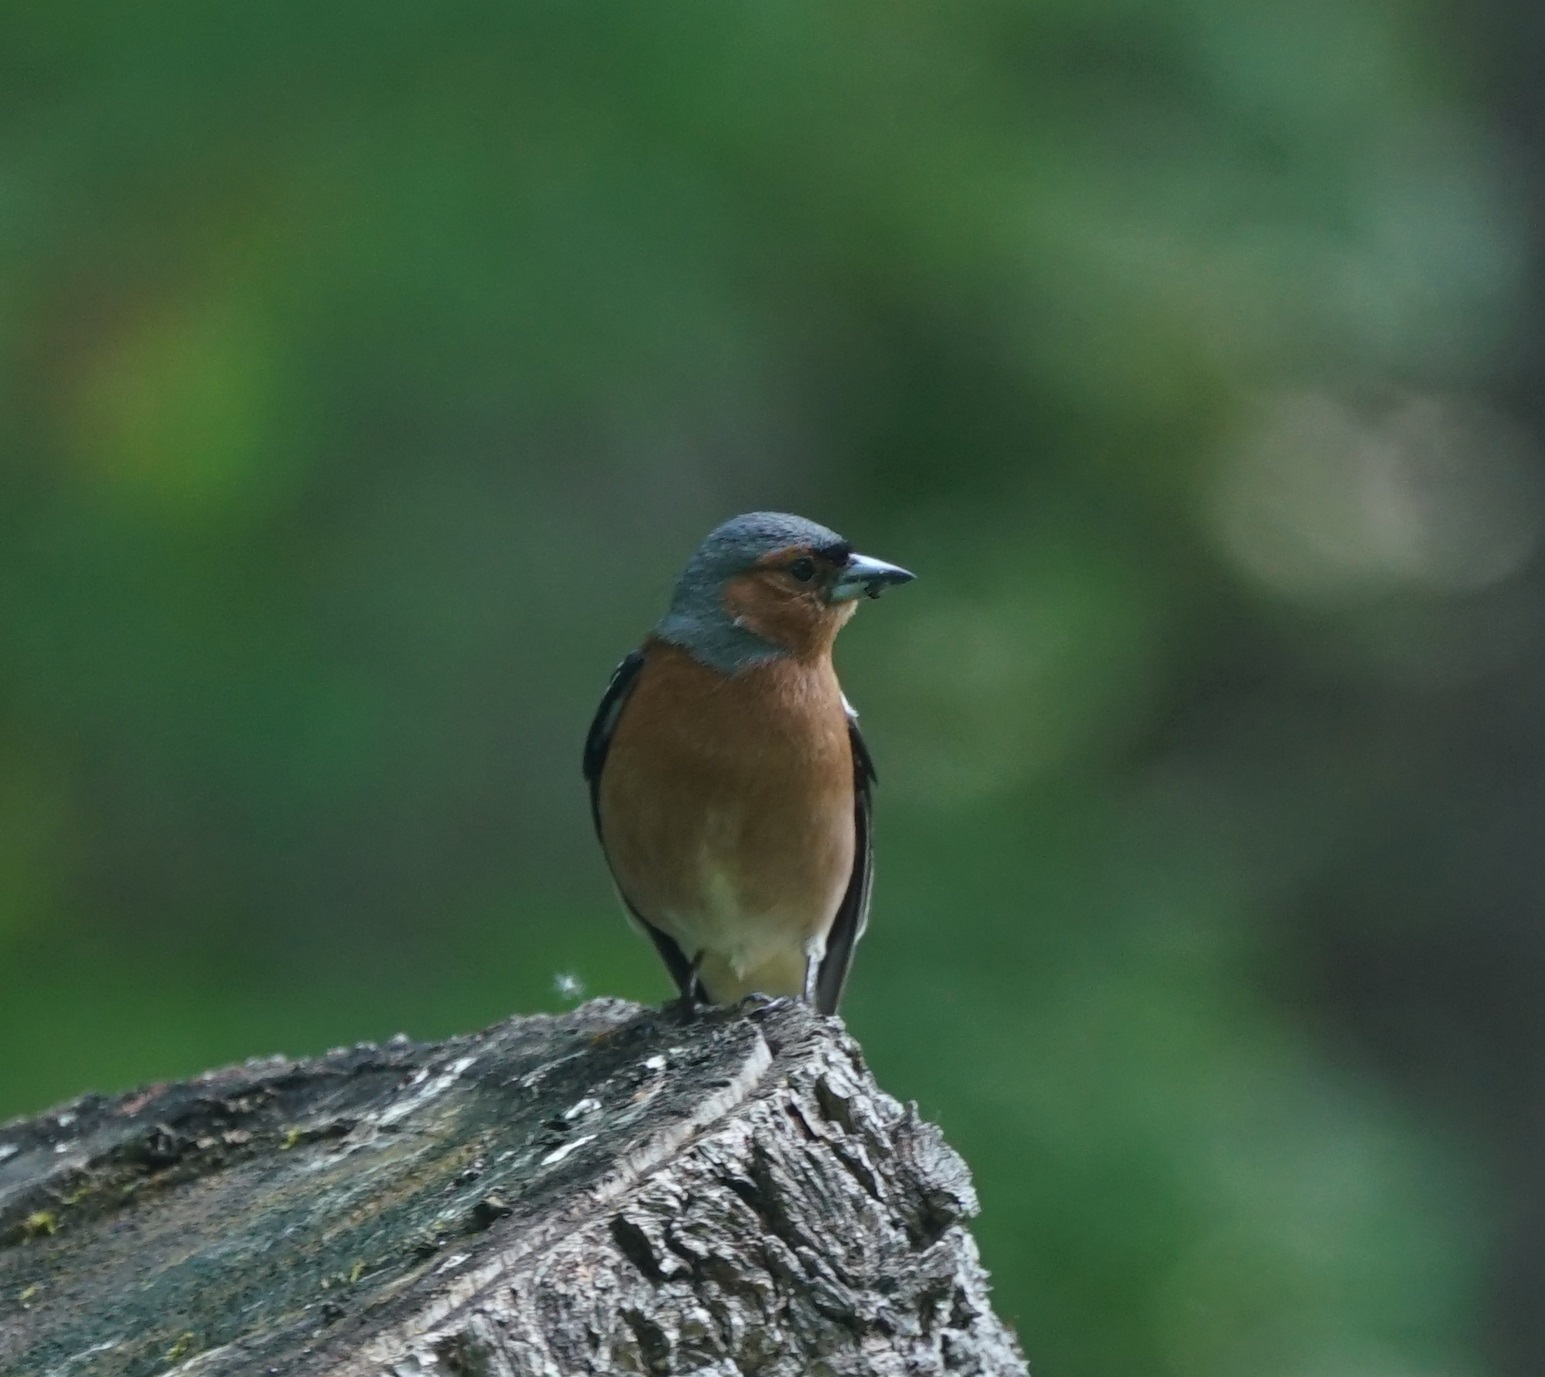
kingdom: Animalia
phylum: Chordata
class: Aves
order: Passeriformes
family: Fringillidae
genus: Fringilla
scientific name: Fringilla coelebs
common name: Common chaffinch
